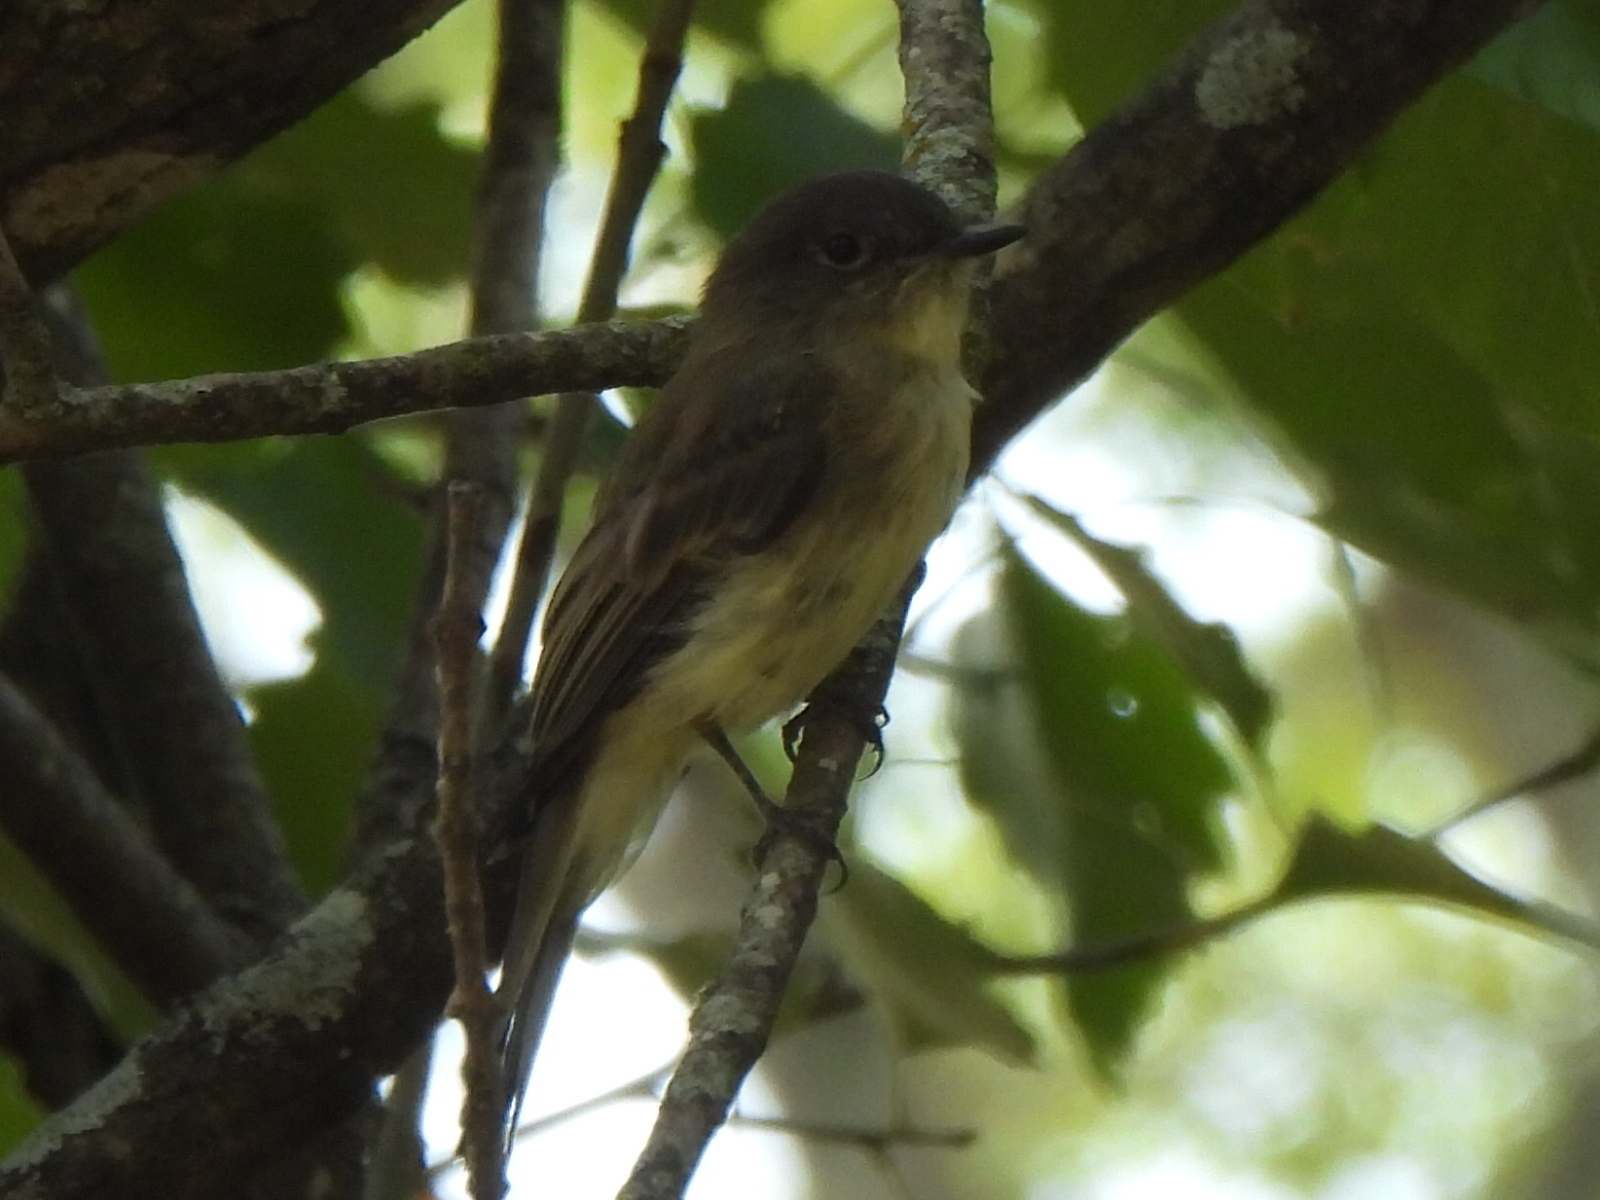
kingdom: Animalia
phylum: Chordata
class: Aves
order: Passeriformes
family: Tyrannidae
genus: Sayornis
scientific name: Sayornis phoebe
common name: Eastern phoebe
